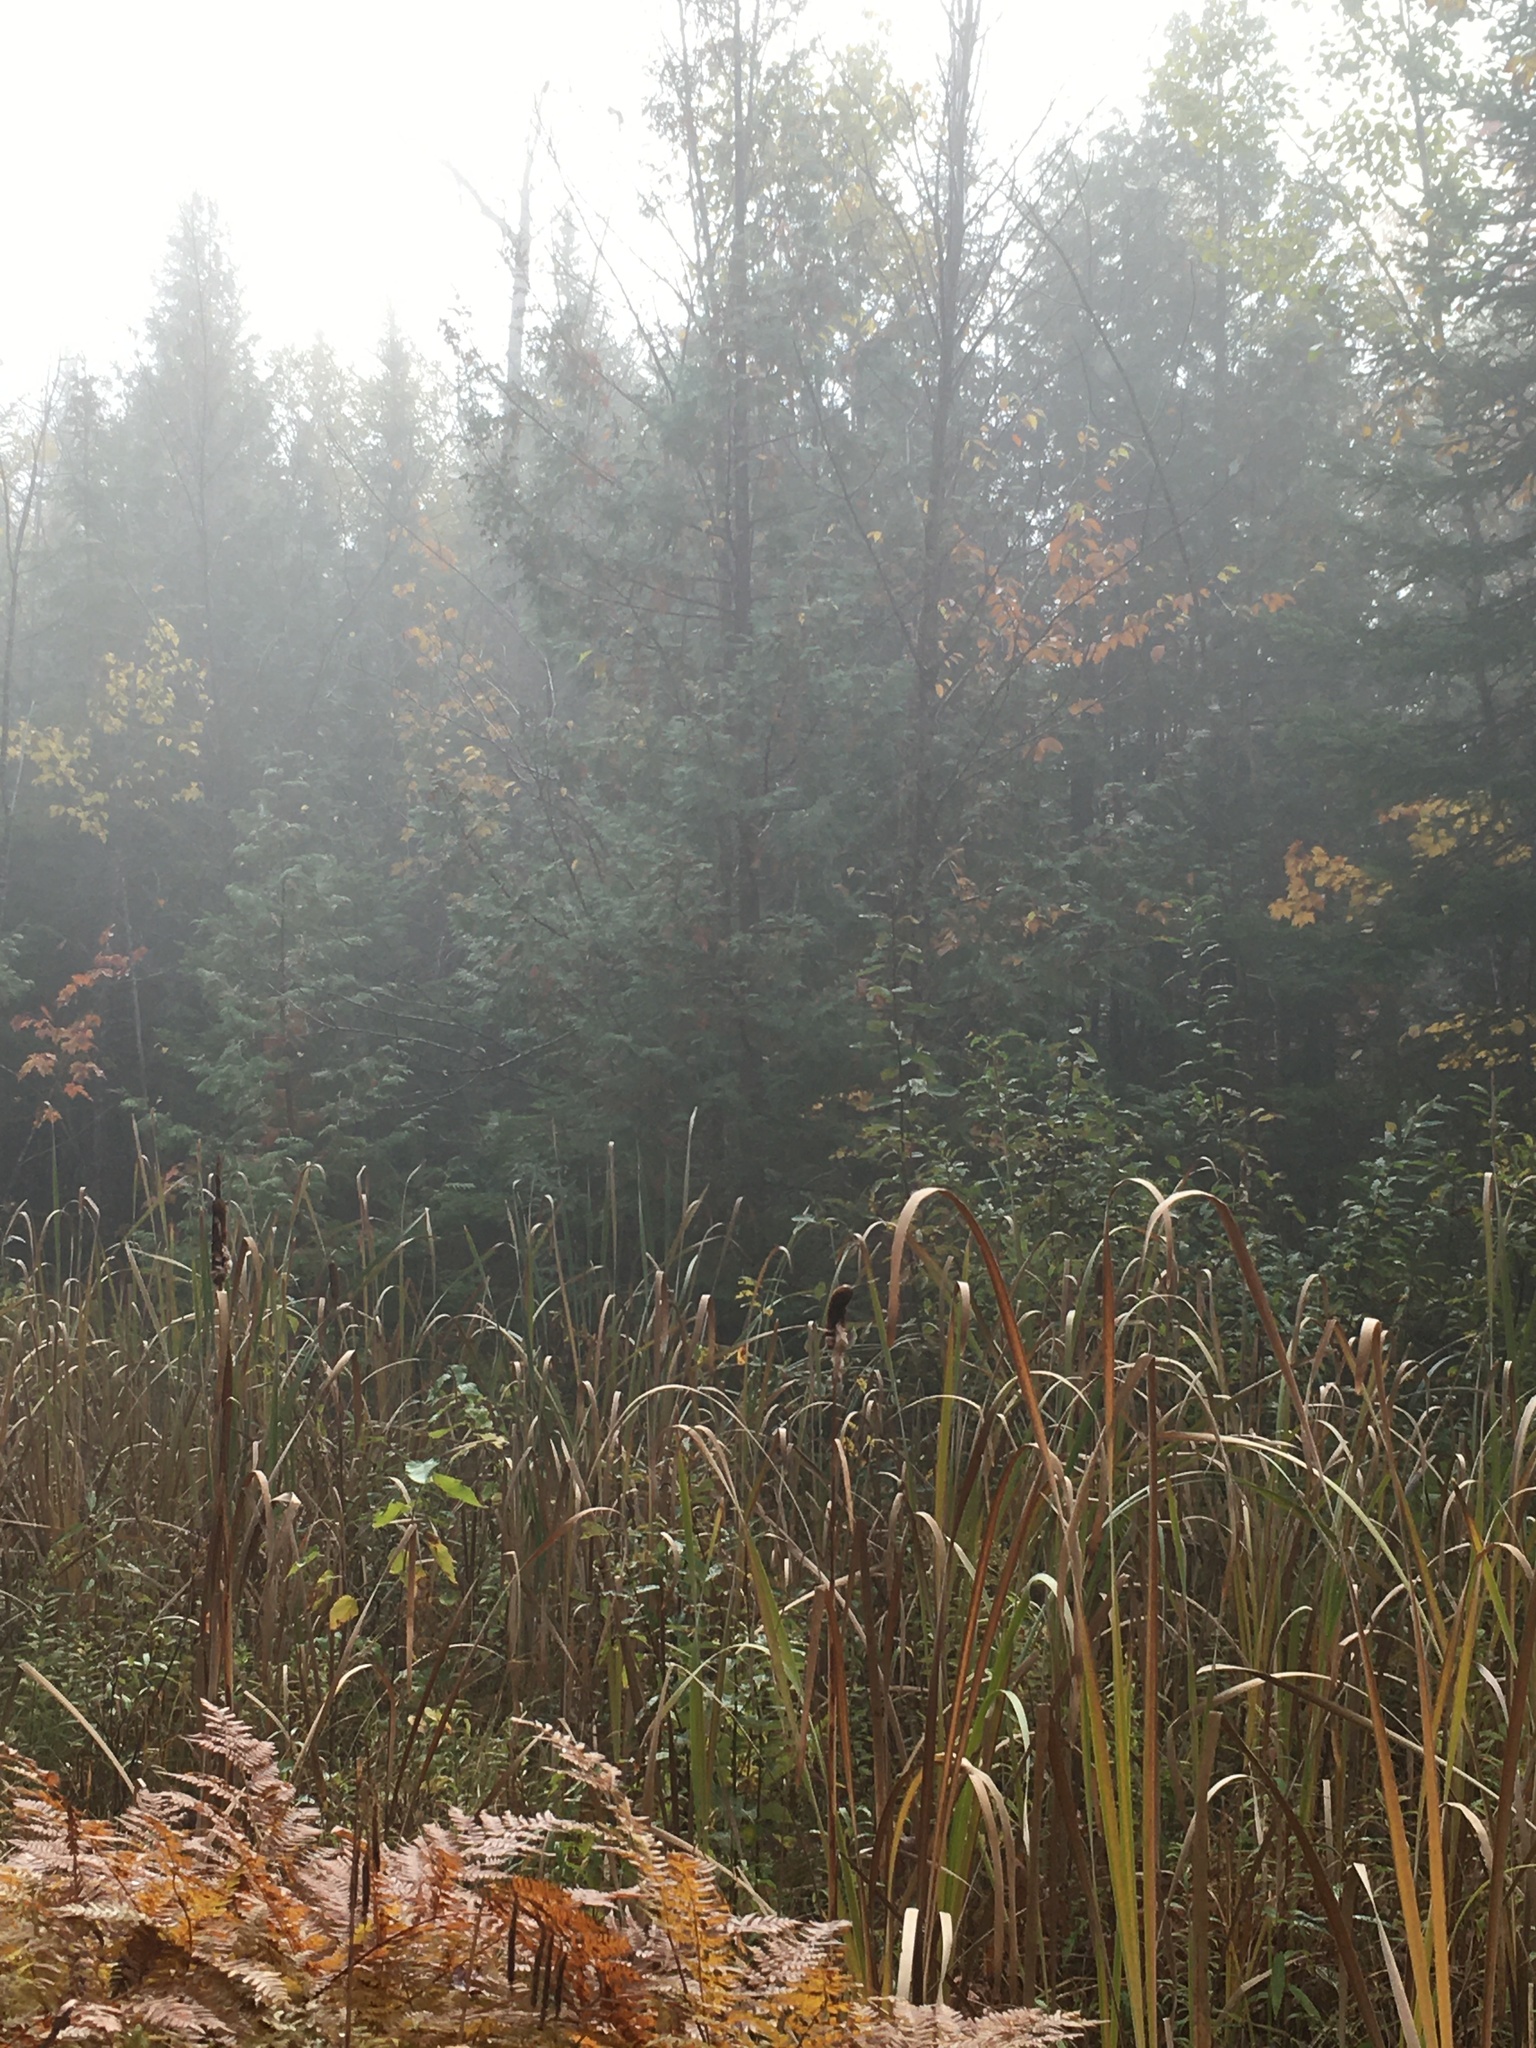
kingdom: Plantae
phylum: Tracheophyta
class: Liliopsida
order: Poales
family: Typhaceae
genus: Typha
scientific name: Typha latifolia
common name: Broadleaf cattail
